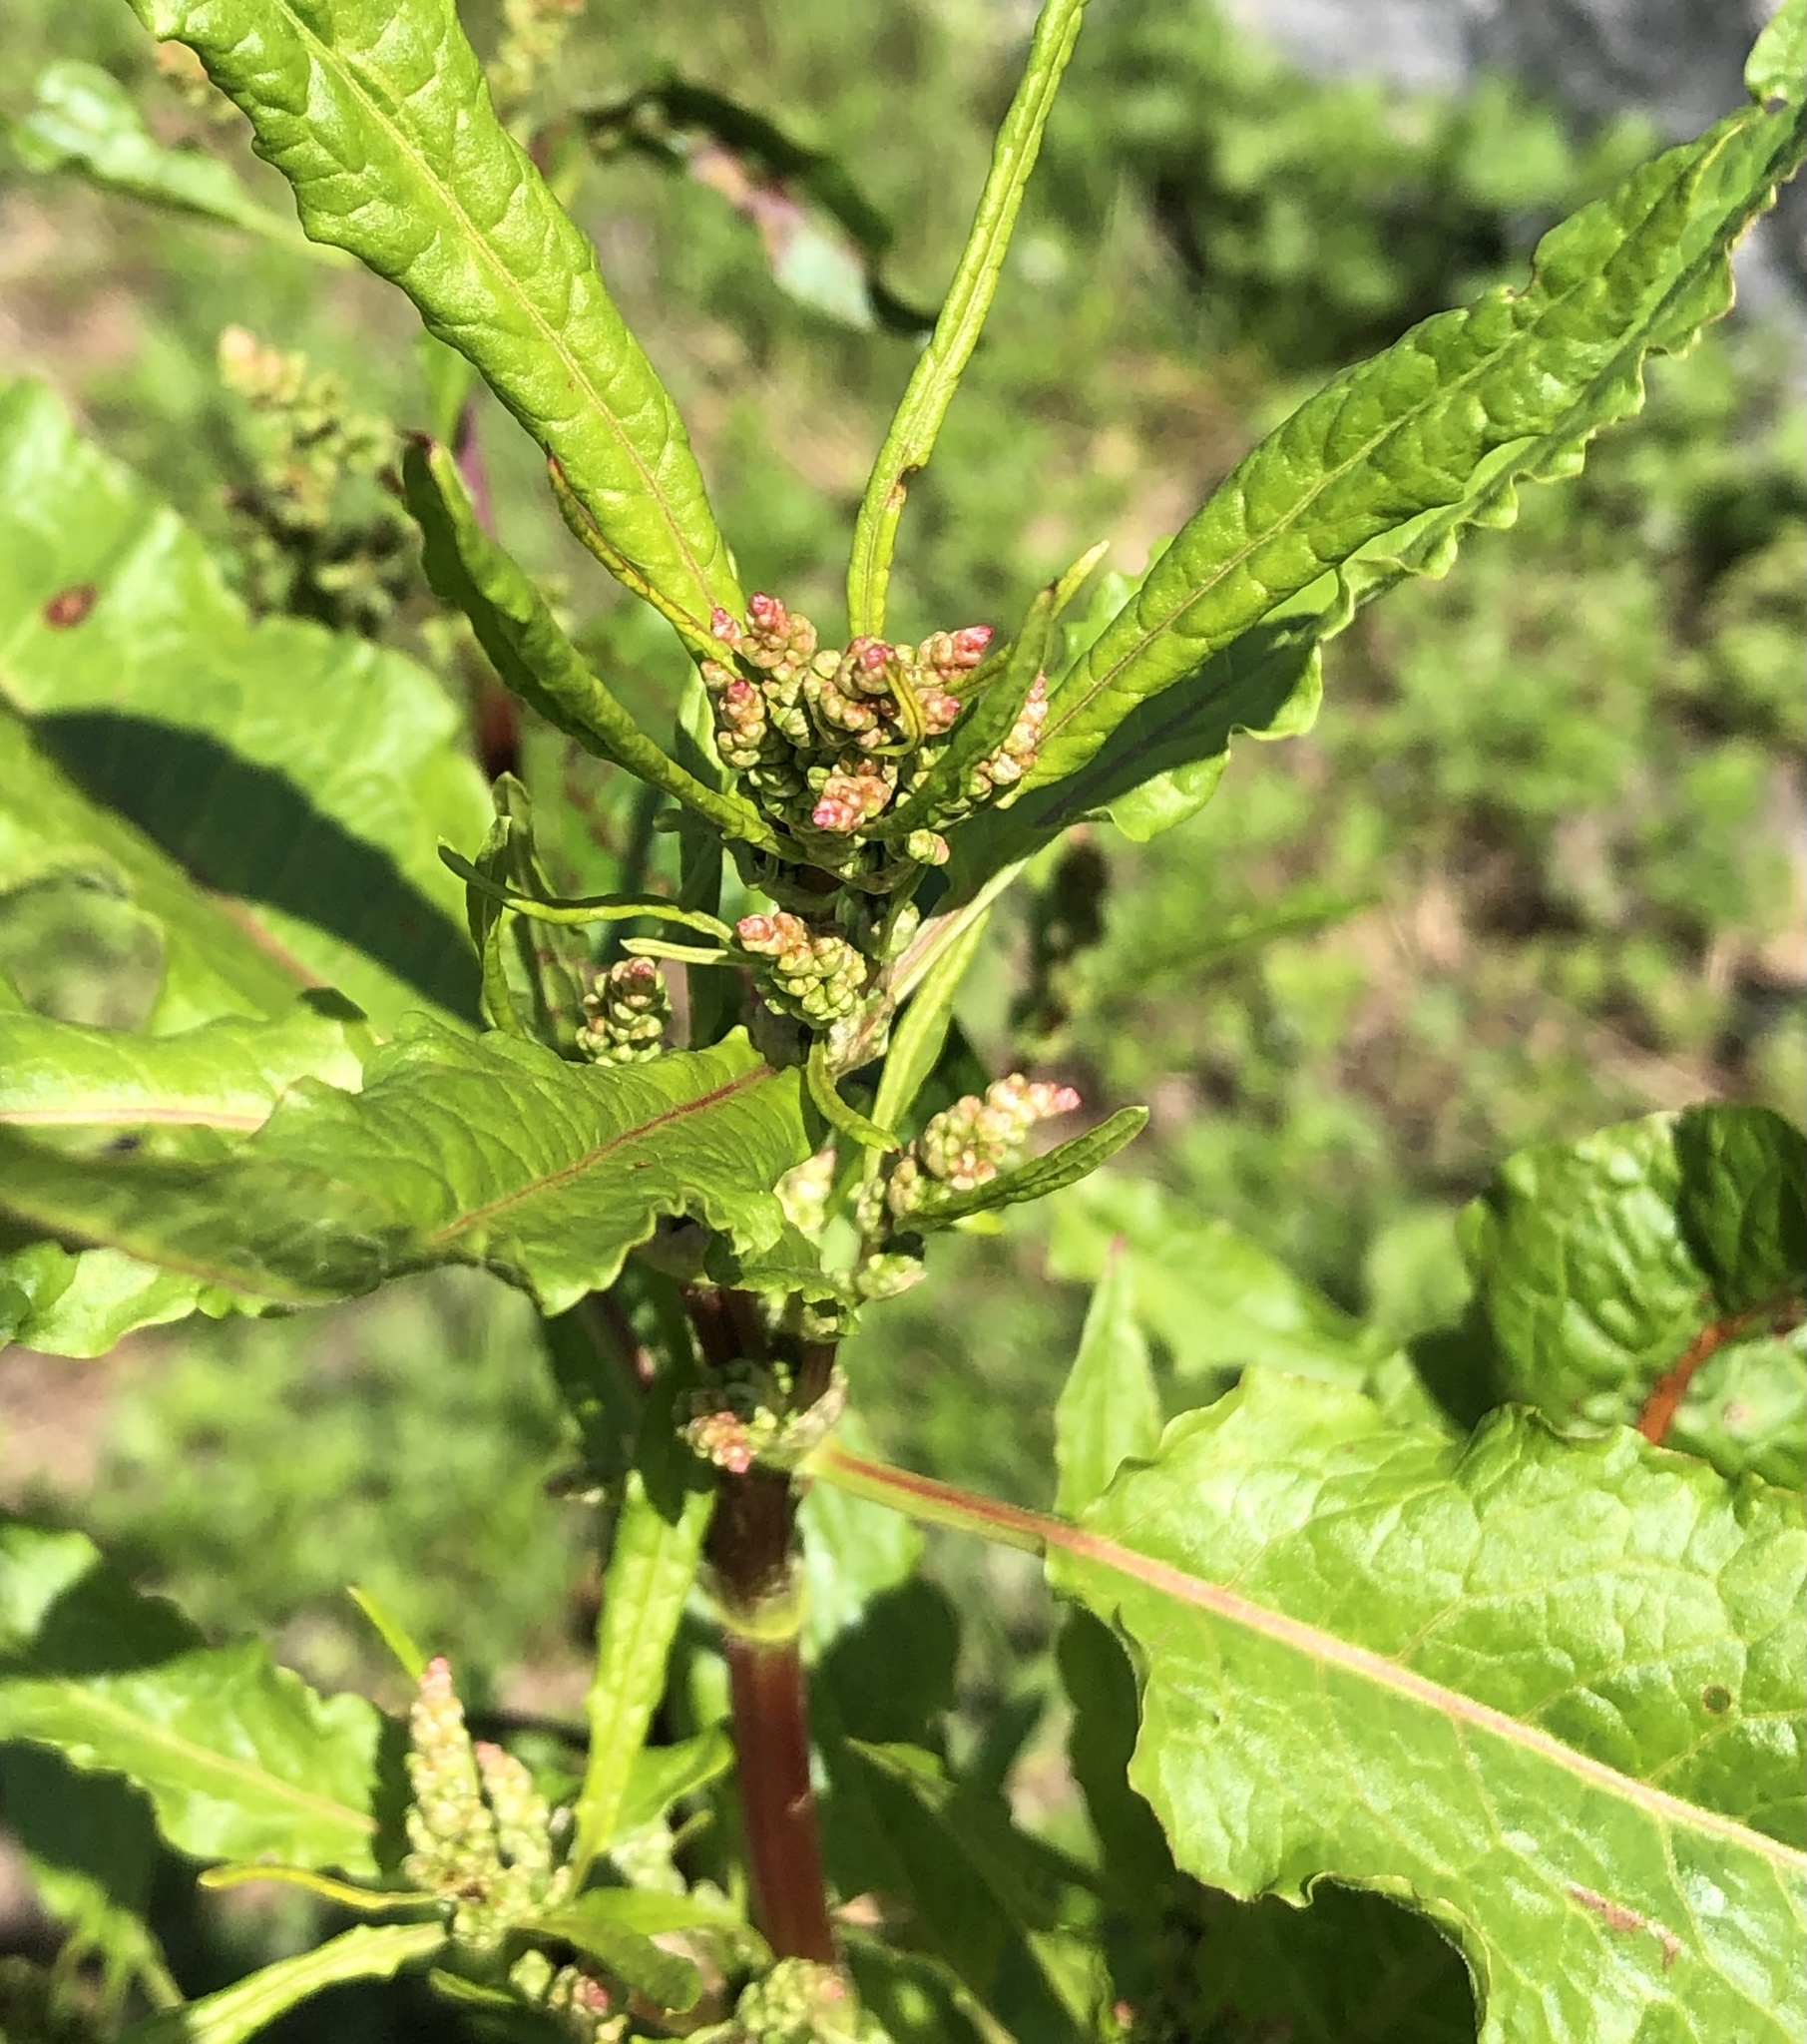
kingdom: Plantae
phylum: Tracheophyta
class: Magnoliopsida
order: Caryophyllales
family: Polygonaceae
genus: Rumex
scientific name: Rumex obtusifolius
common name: Bitter dock
